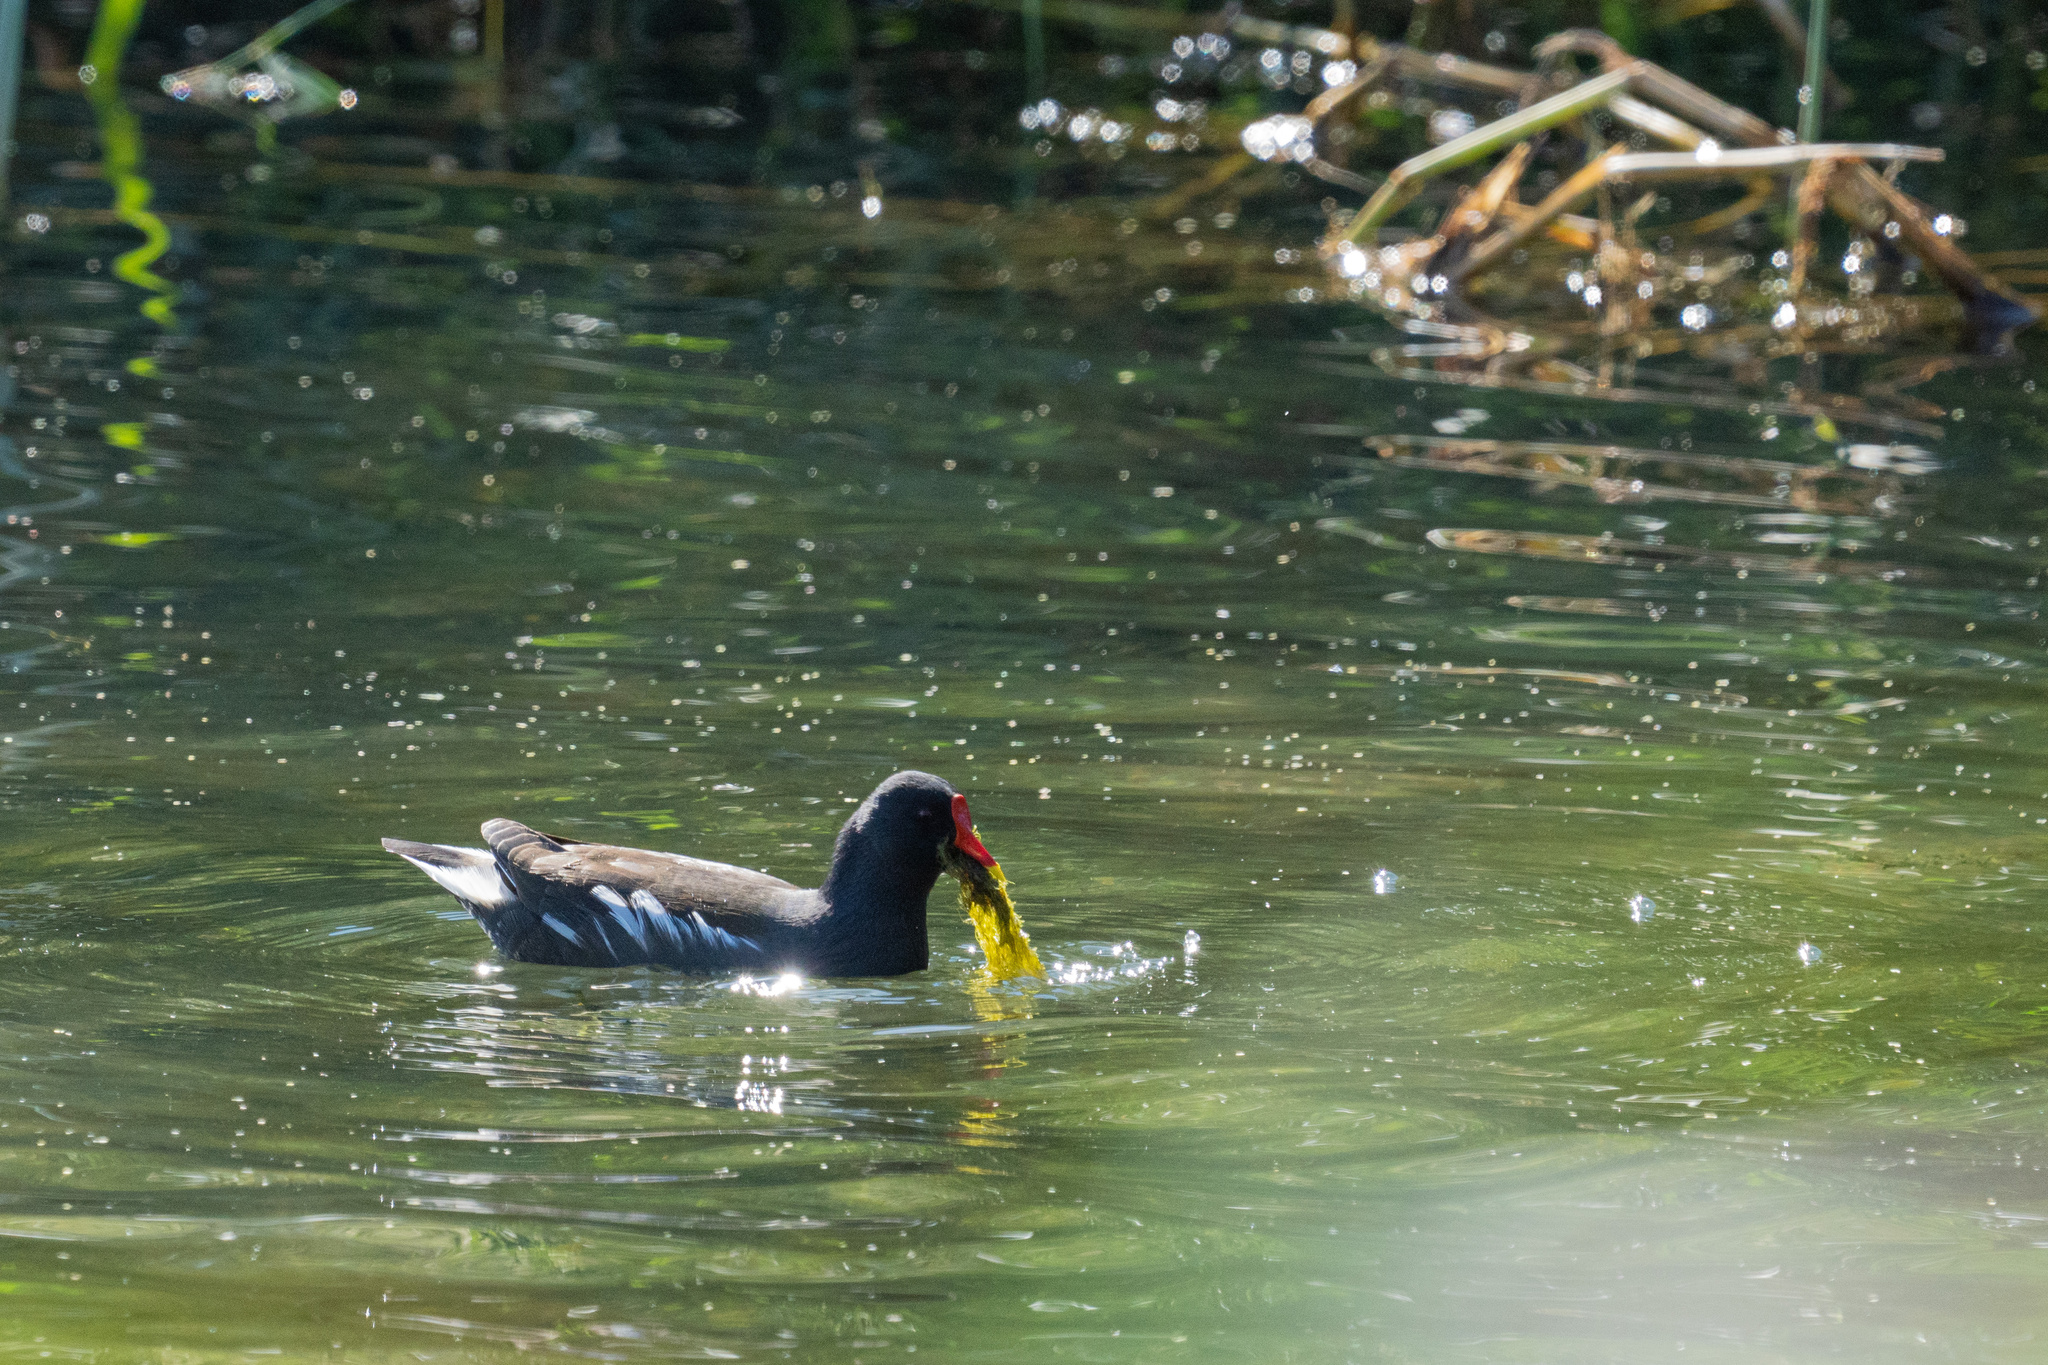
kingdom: Animalia
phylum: Chordata
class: Aves
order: Gruiformes
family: Rallidae
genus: Gallinula
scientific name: Gallinula chloropus
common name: Common moorhen
